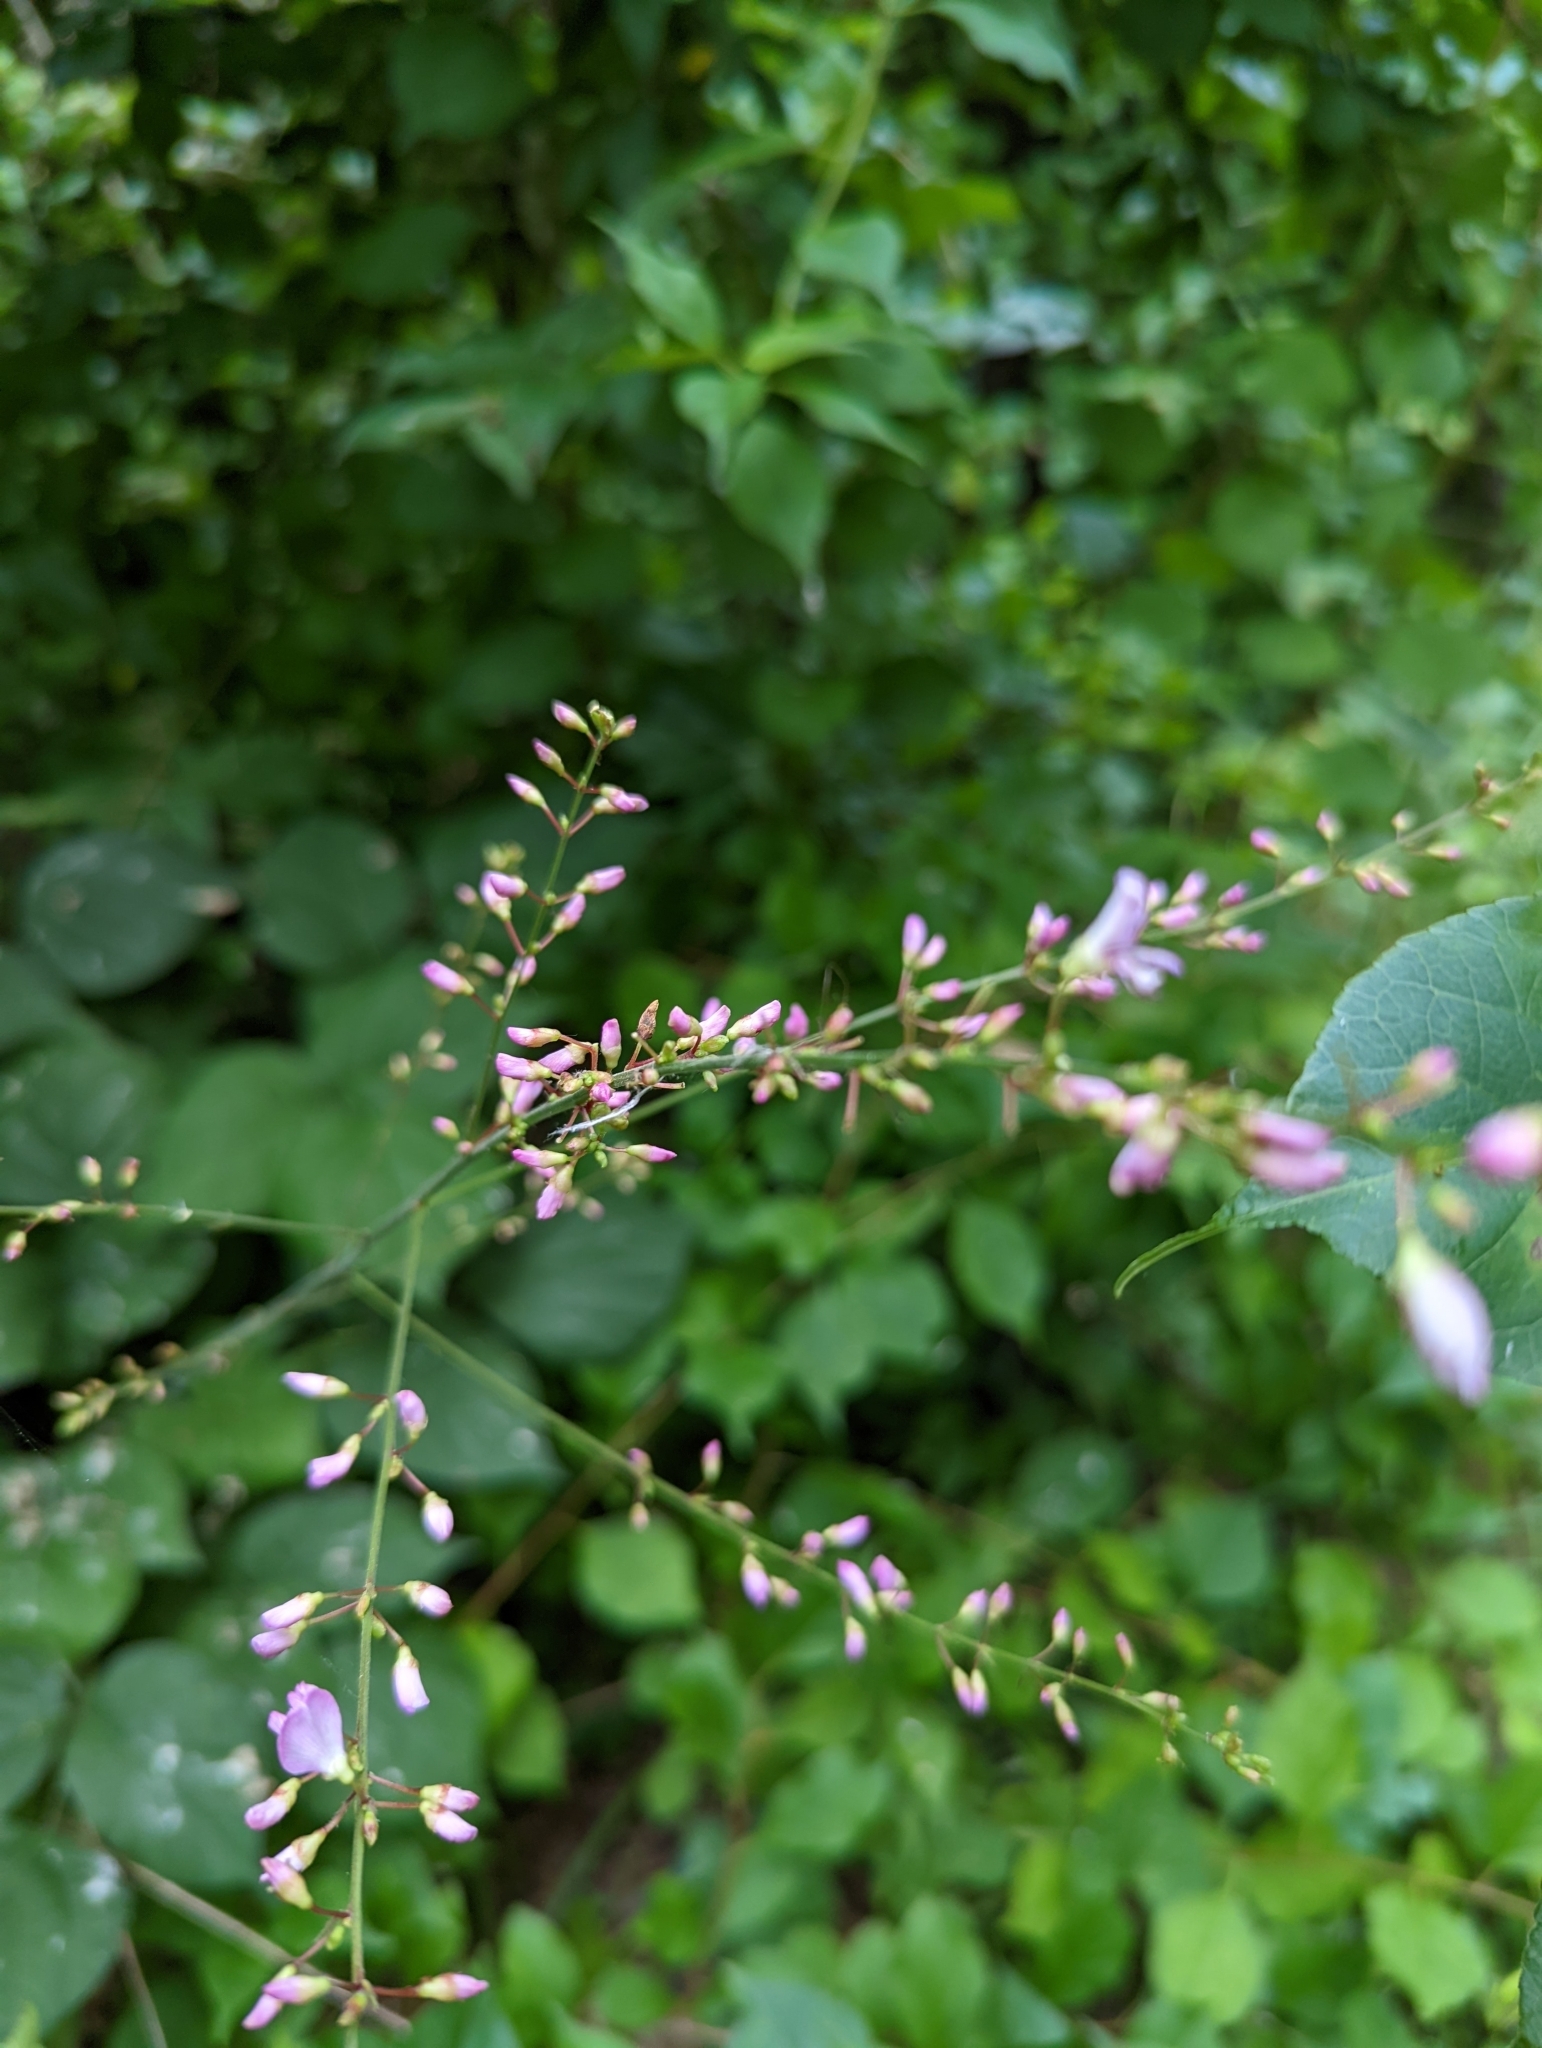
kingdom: Plantae
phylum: Tracheophyta
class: Magnoliopsida
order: Fabales
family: Fabaceae
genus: Hylodesmum
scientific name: Hylodesmum nudiflorum
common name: Bare-stemmed tick-trefoil
